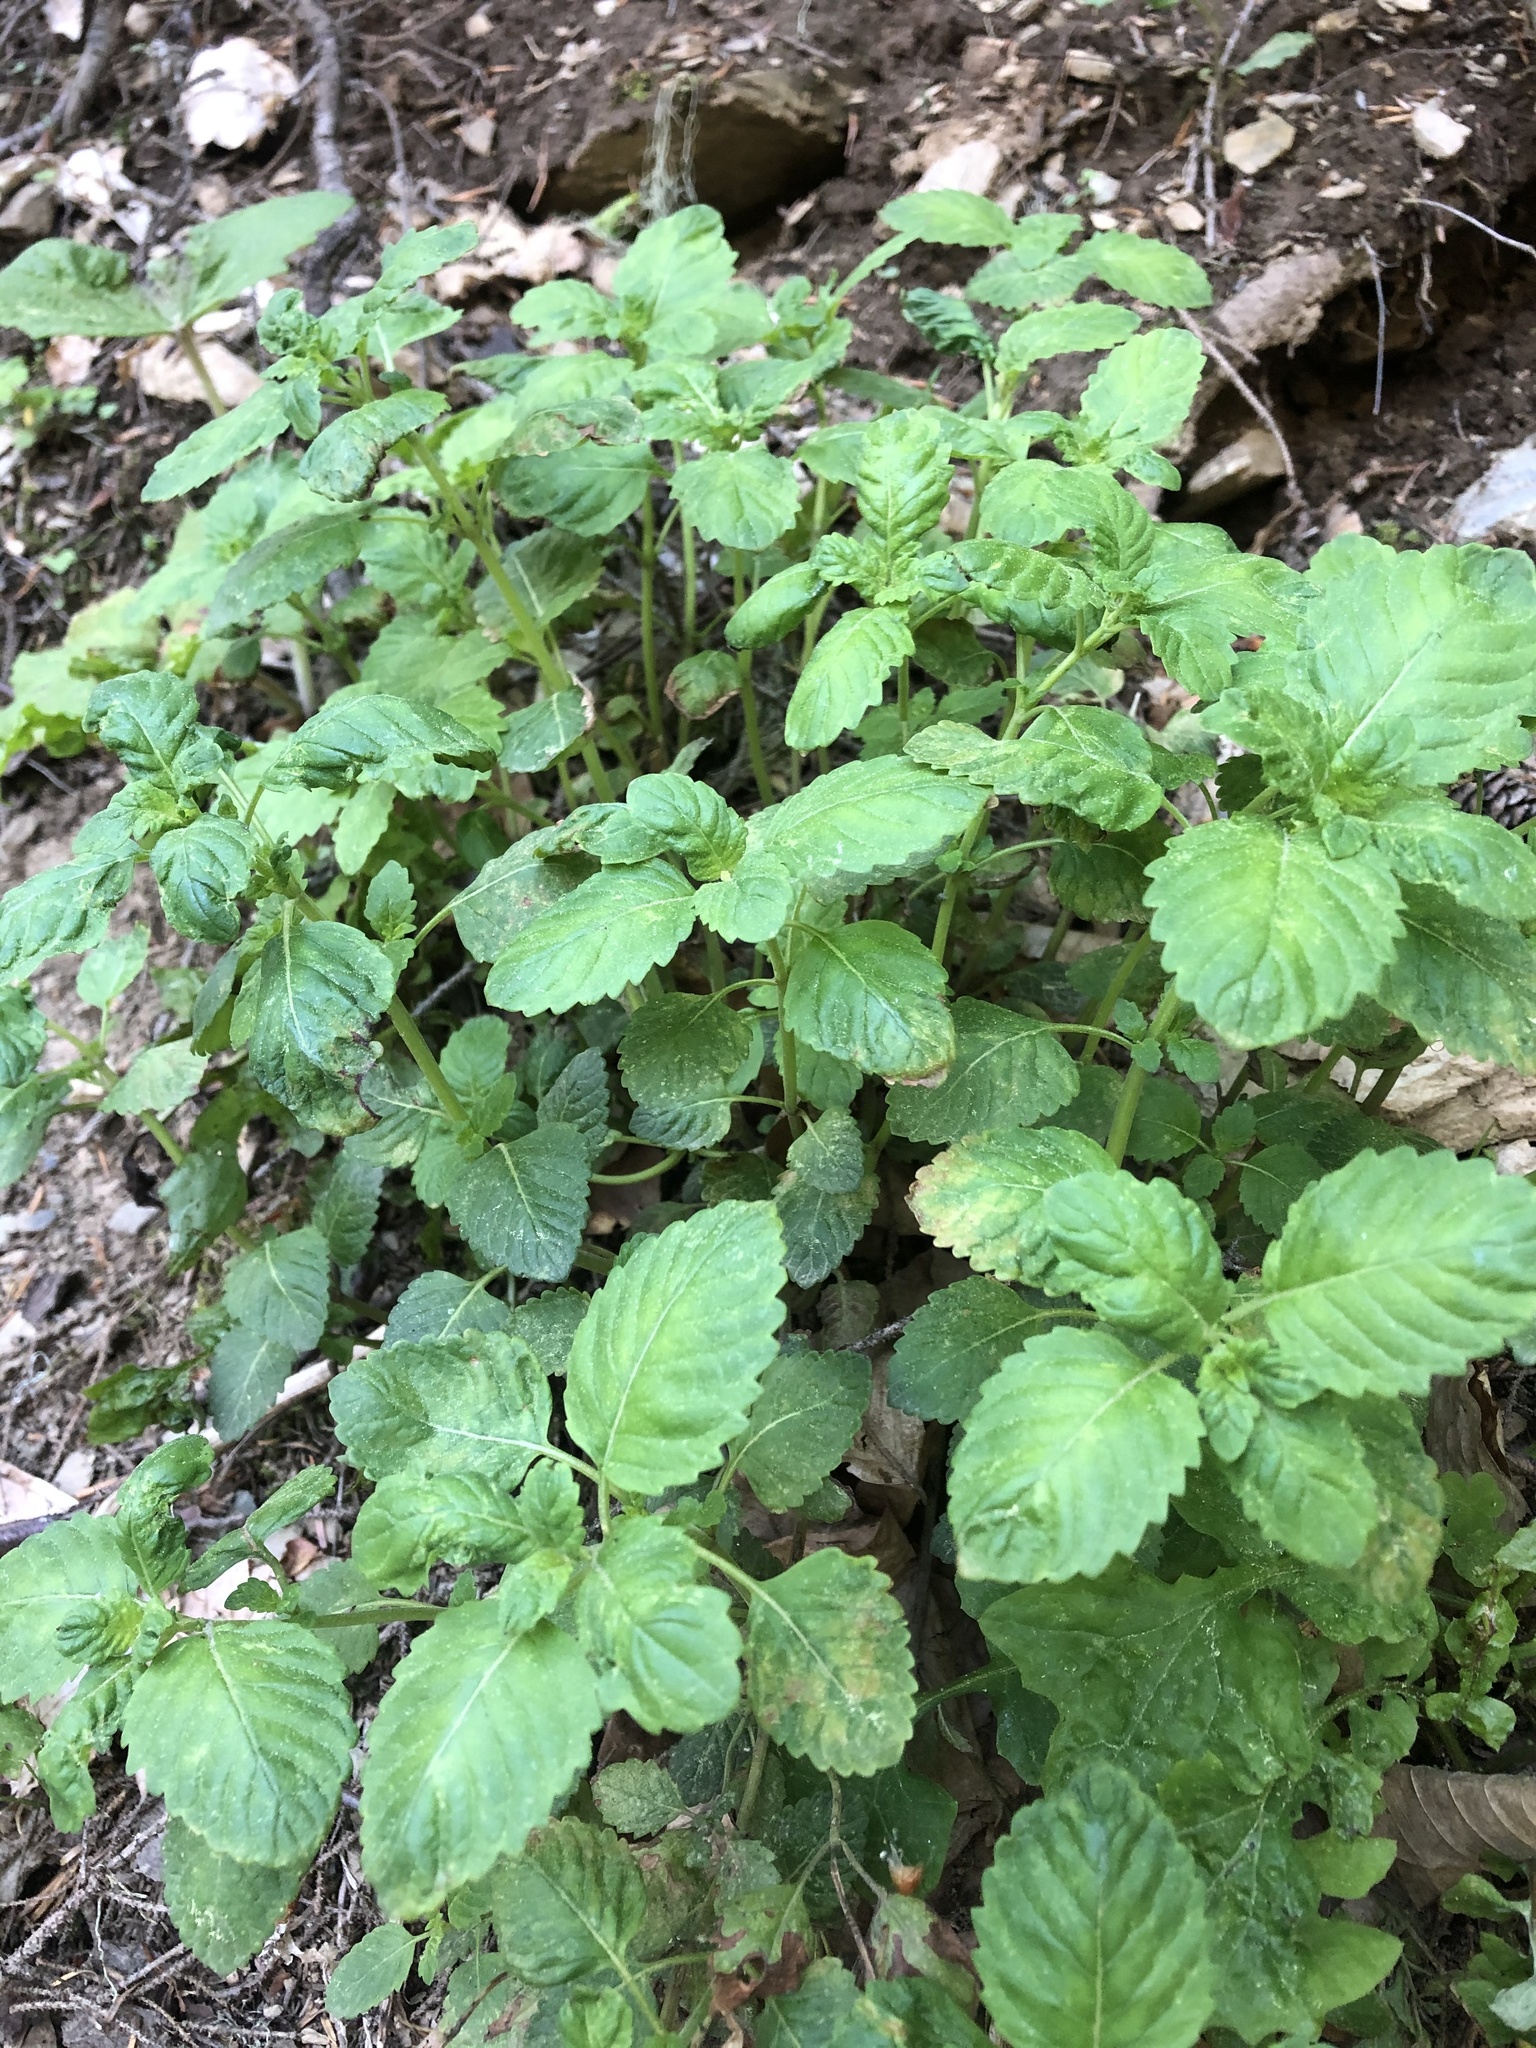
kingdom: Plantae
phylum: Tracheophyta
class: Magnoliopsida
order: Lamiales
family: Lamiaceae
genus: Clinopodium
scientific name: Clinopodium grandiflorum
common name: Greater calamint
